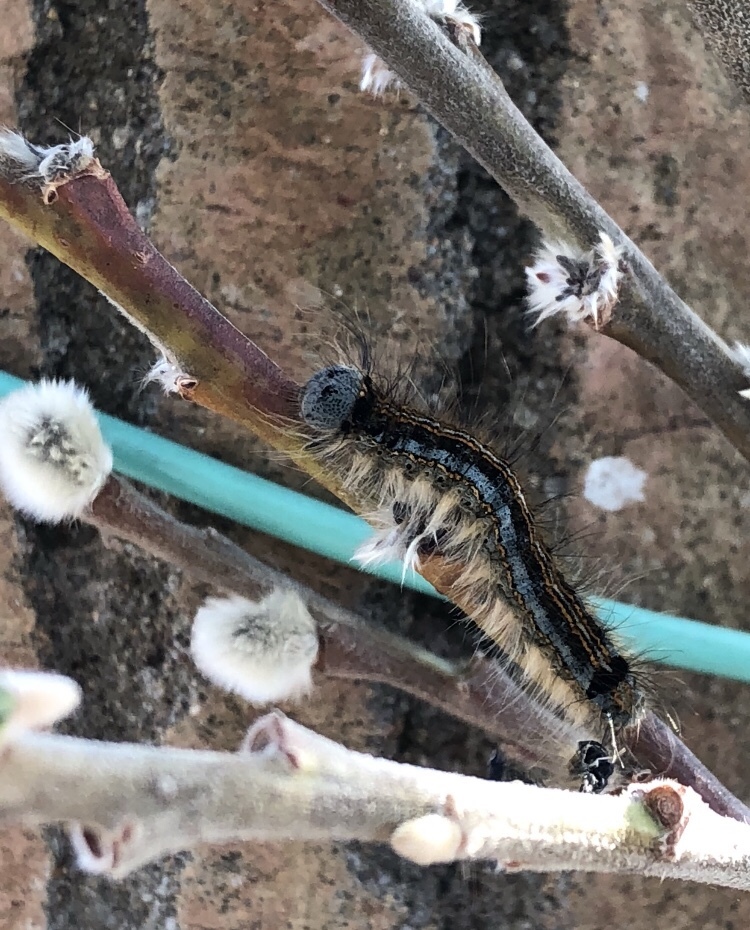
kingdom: Animalia
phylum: Arthropoda
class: Insecta
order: Lepidoptera
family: Lasiocampidae
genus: Malacosoma
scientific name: Malacosoma neustria
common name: The lackey
